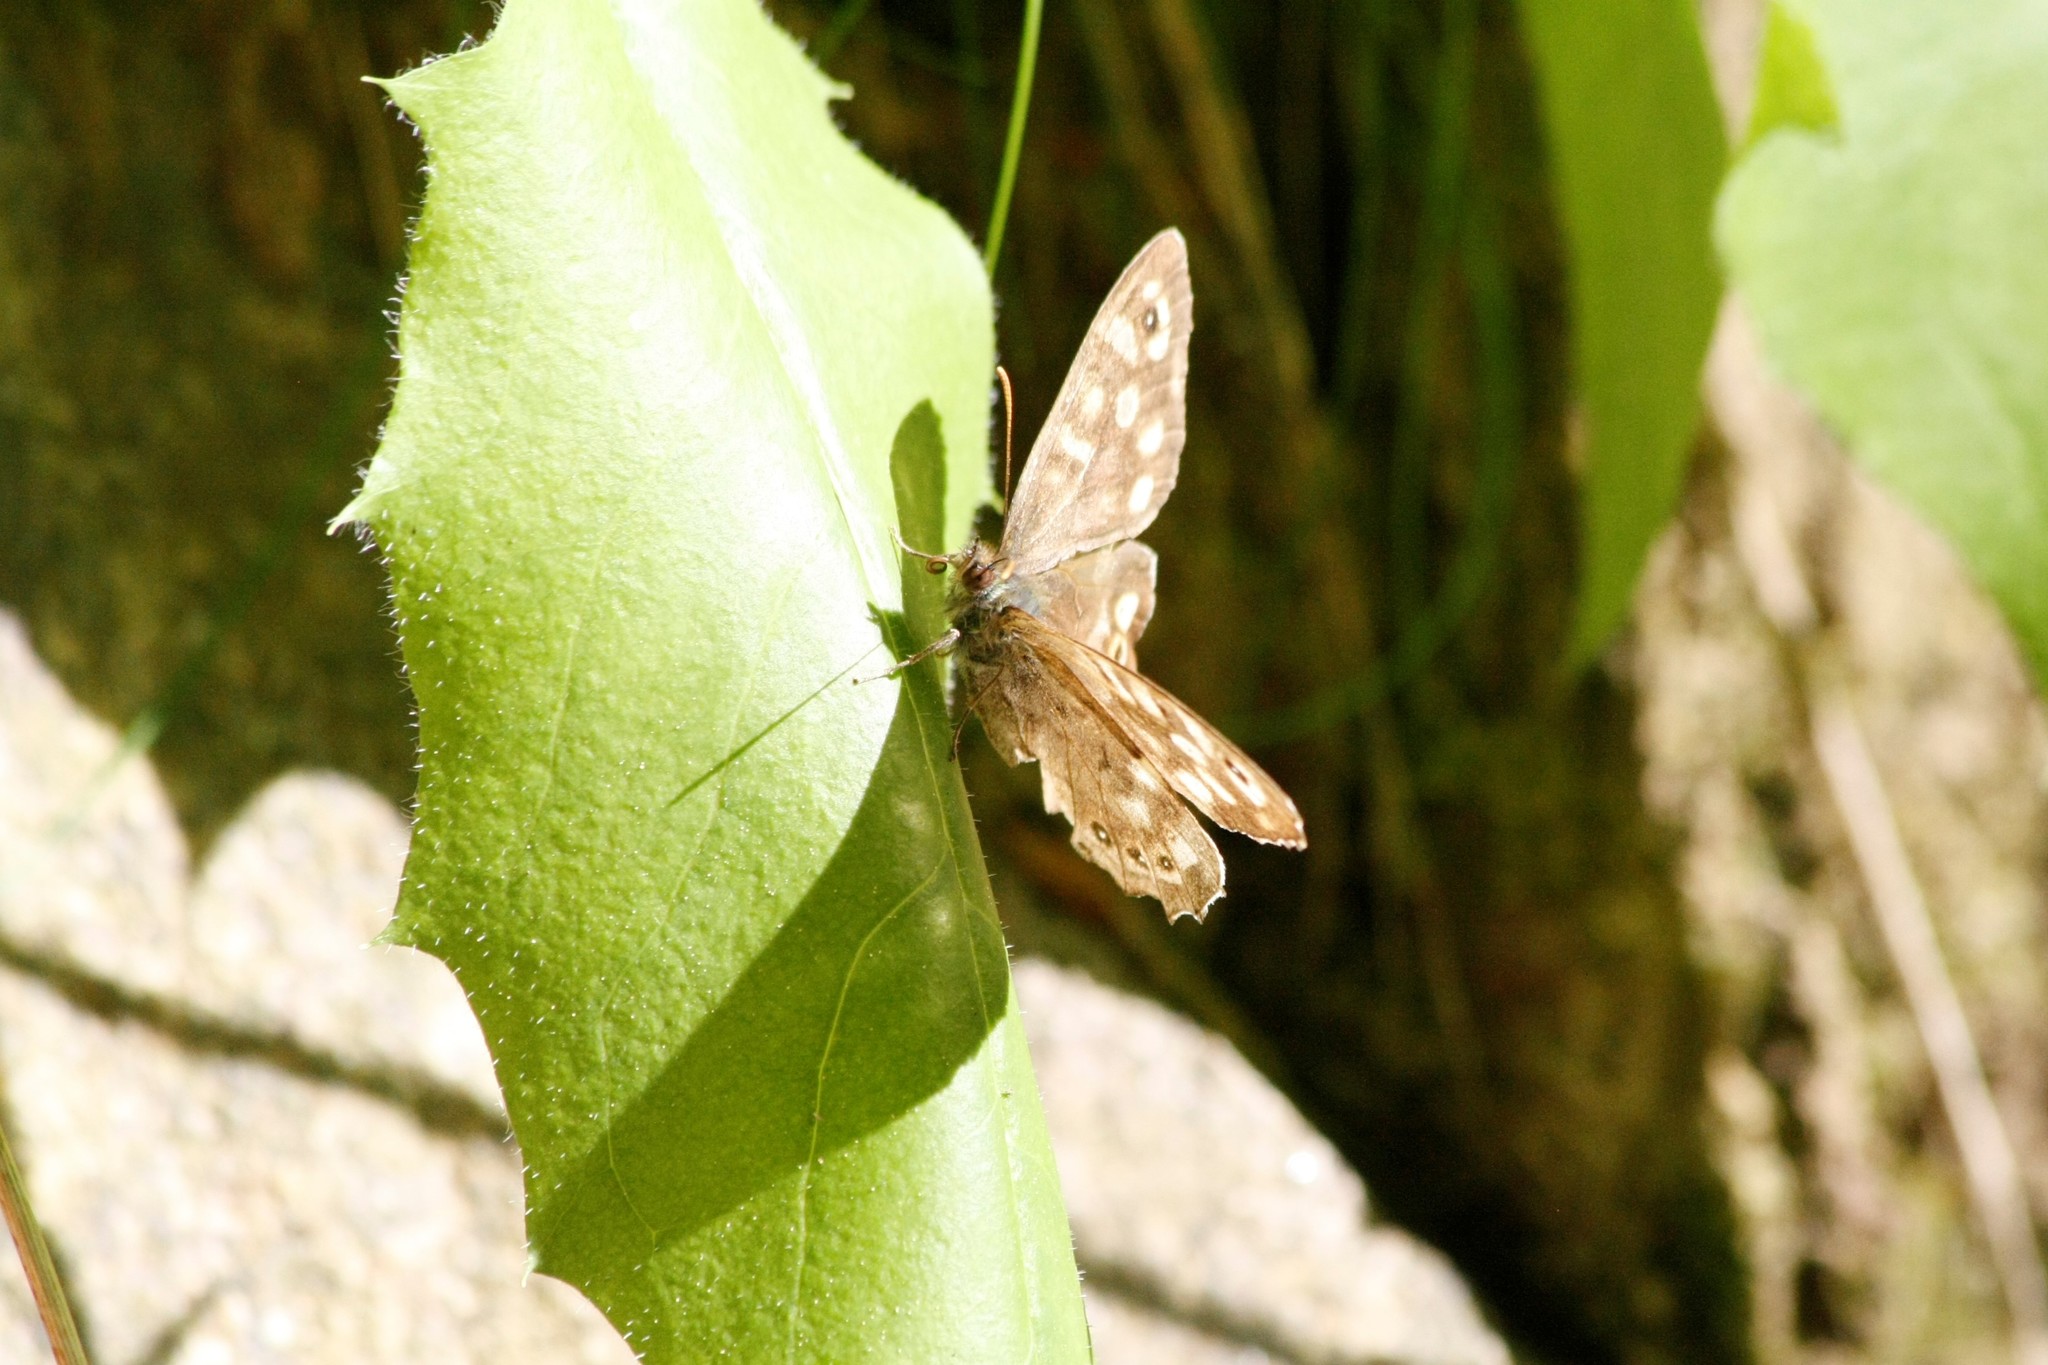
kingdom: Animalia
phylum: Arthropoda
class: Insecta
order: Lepidoptera
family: Nymphalidae
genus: Pararge
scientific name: Pararge aegeria
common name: Speckled wood
